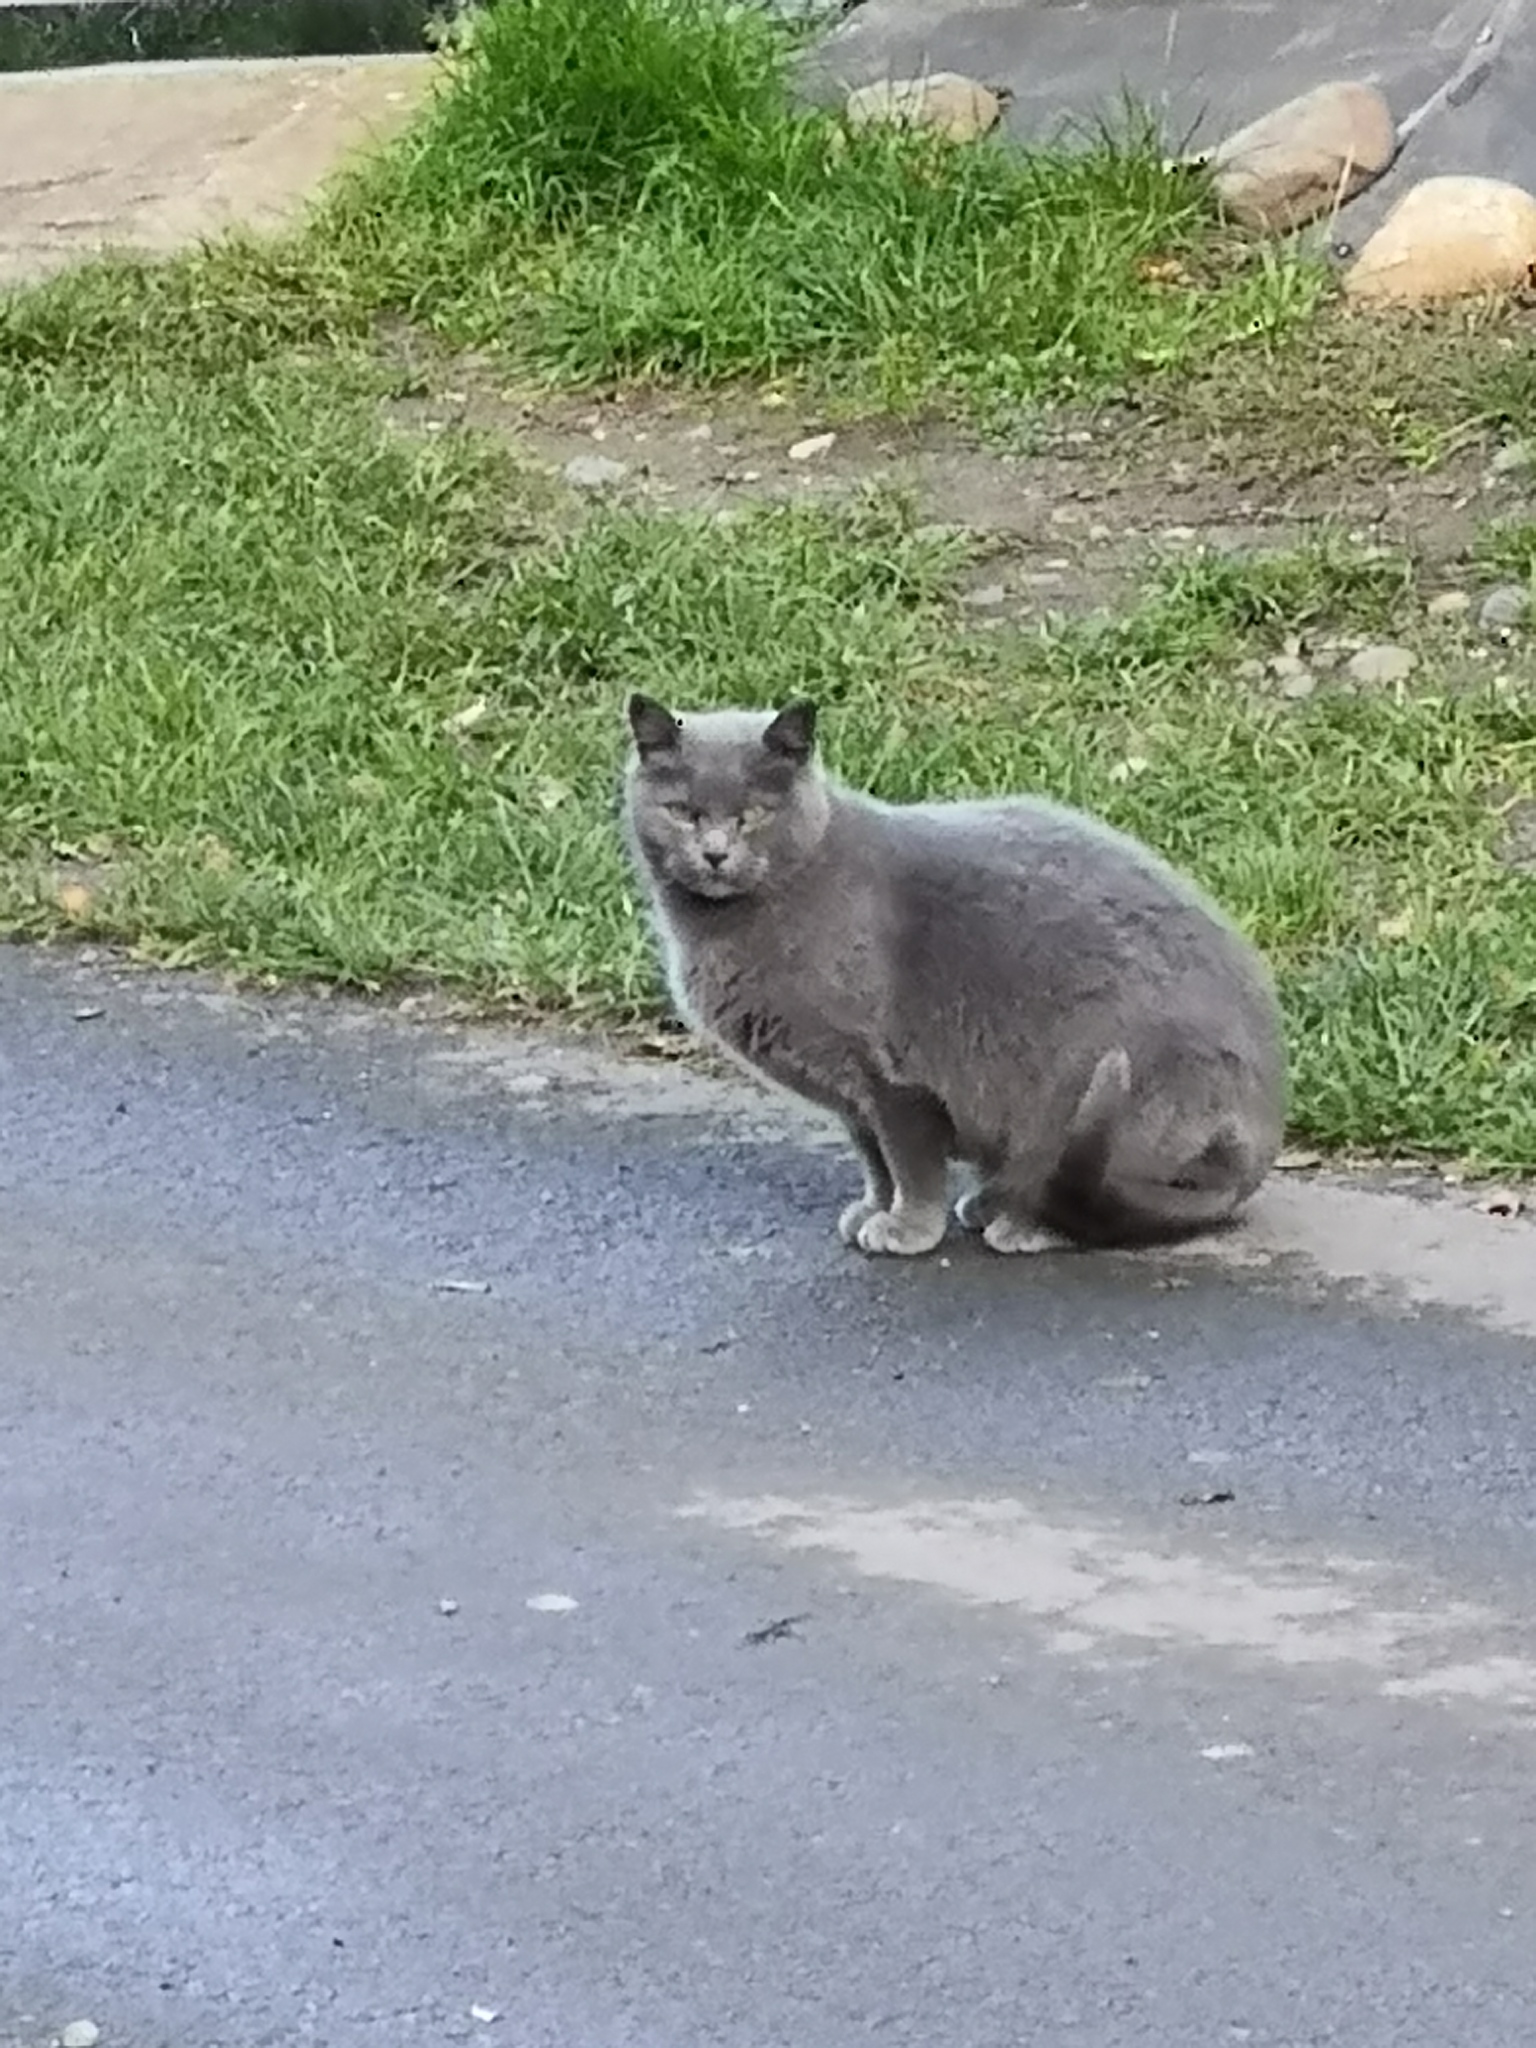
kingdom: Animalia
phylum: Chordata
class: Mammalia
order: Carnivora
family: Felidae
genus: Felis
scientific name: Felis catus
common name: Domestic cat
